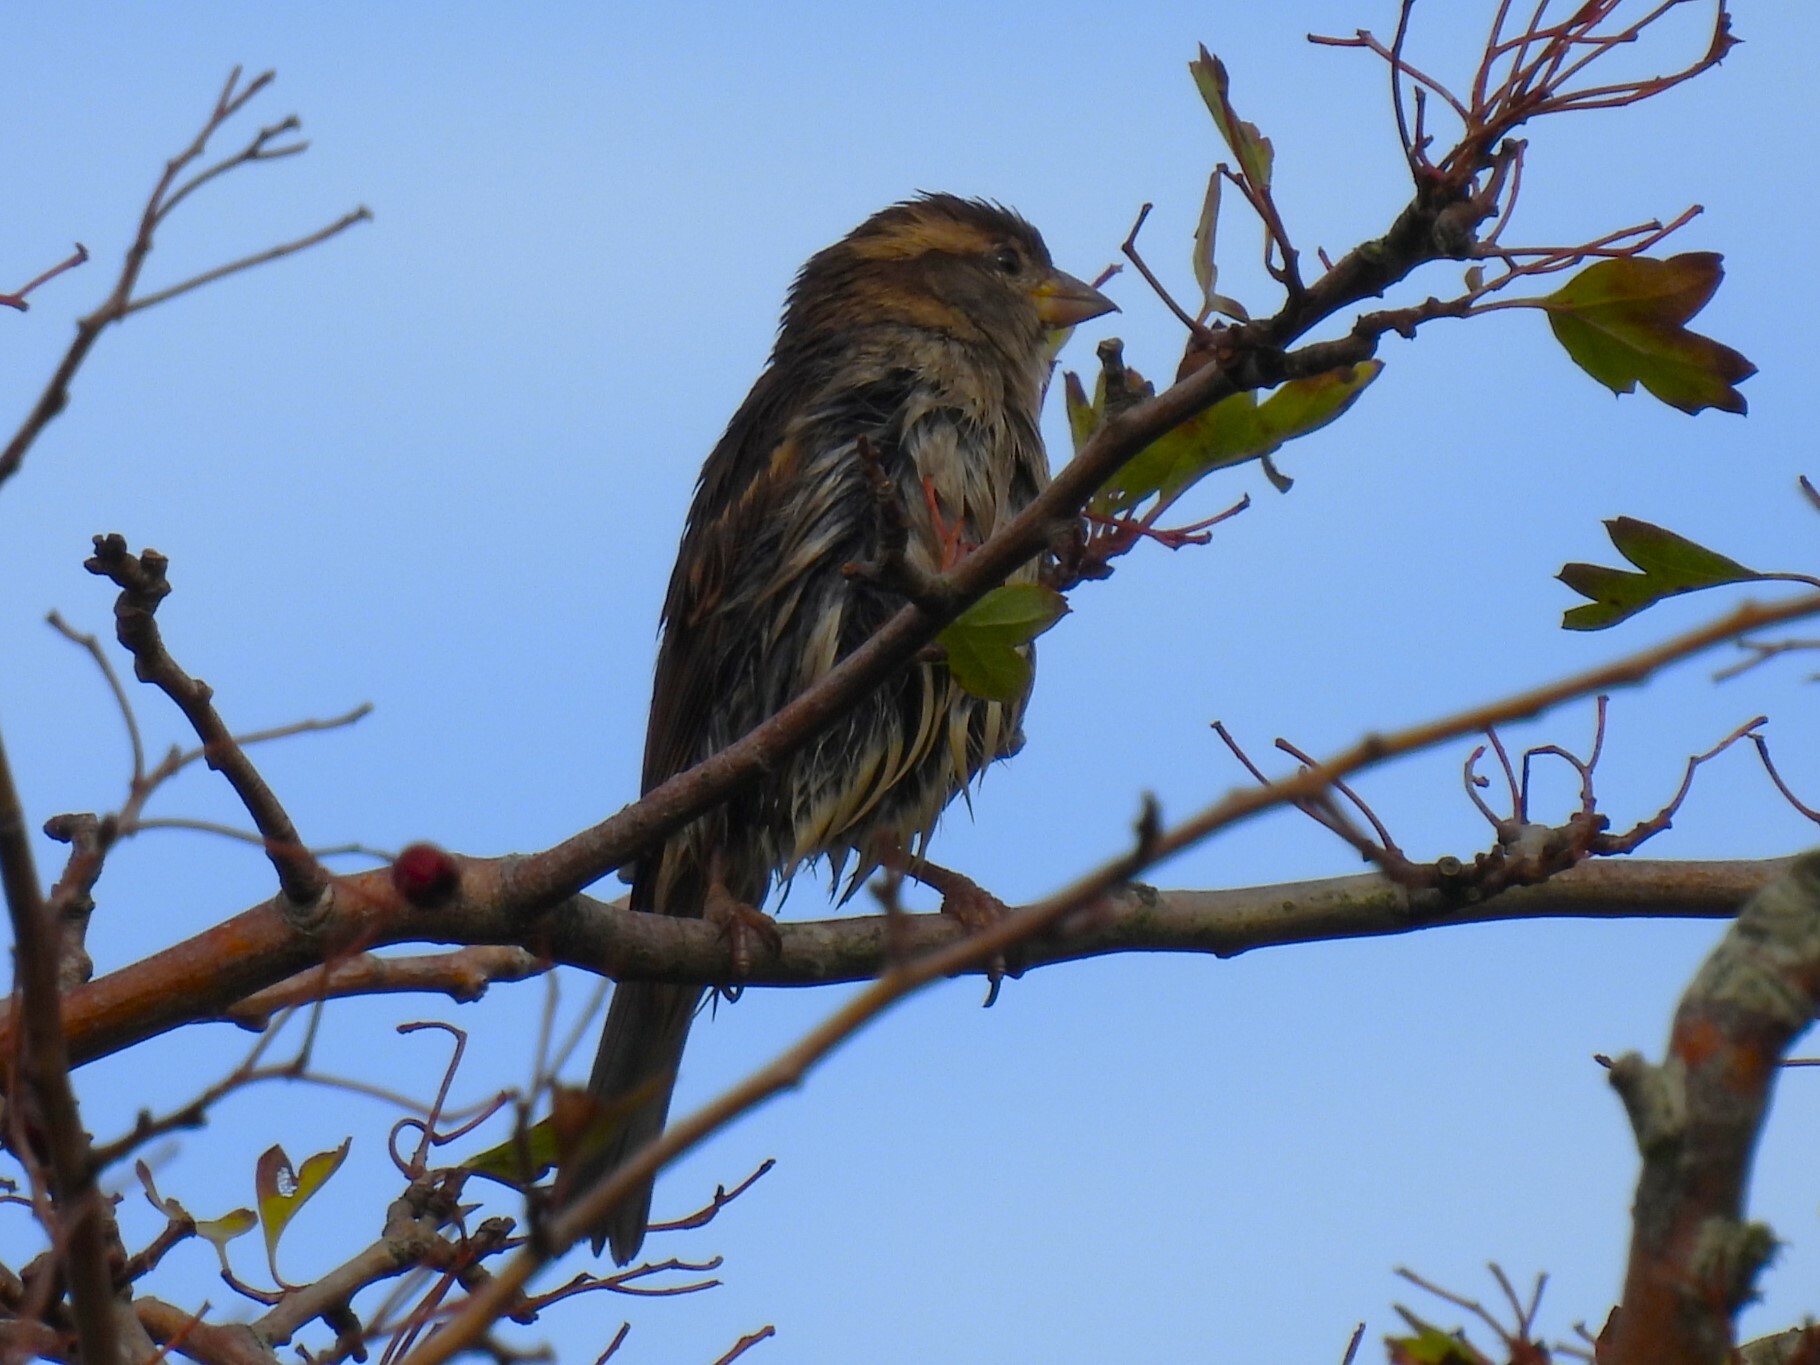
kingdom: Animalia
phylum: Chordata
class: Aves
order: Passeriformes
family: Passeridae
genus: Passer
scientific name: Passer domesticus
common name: House sparrow
